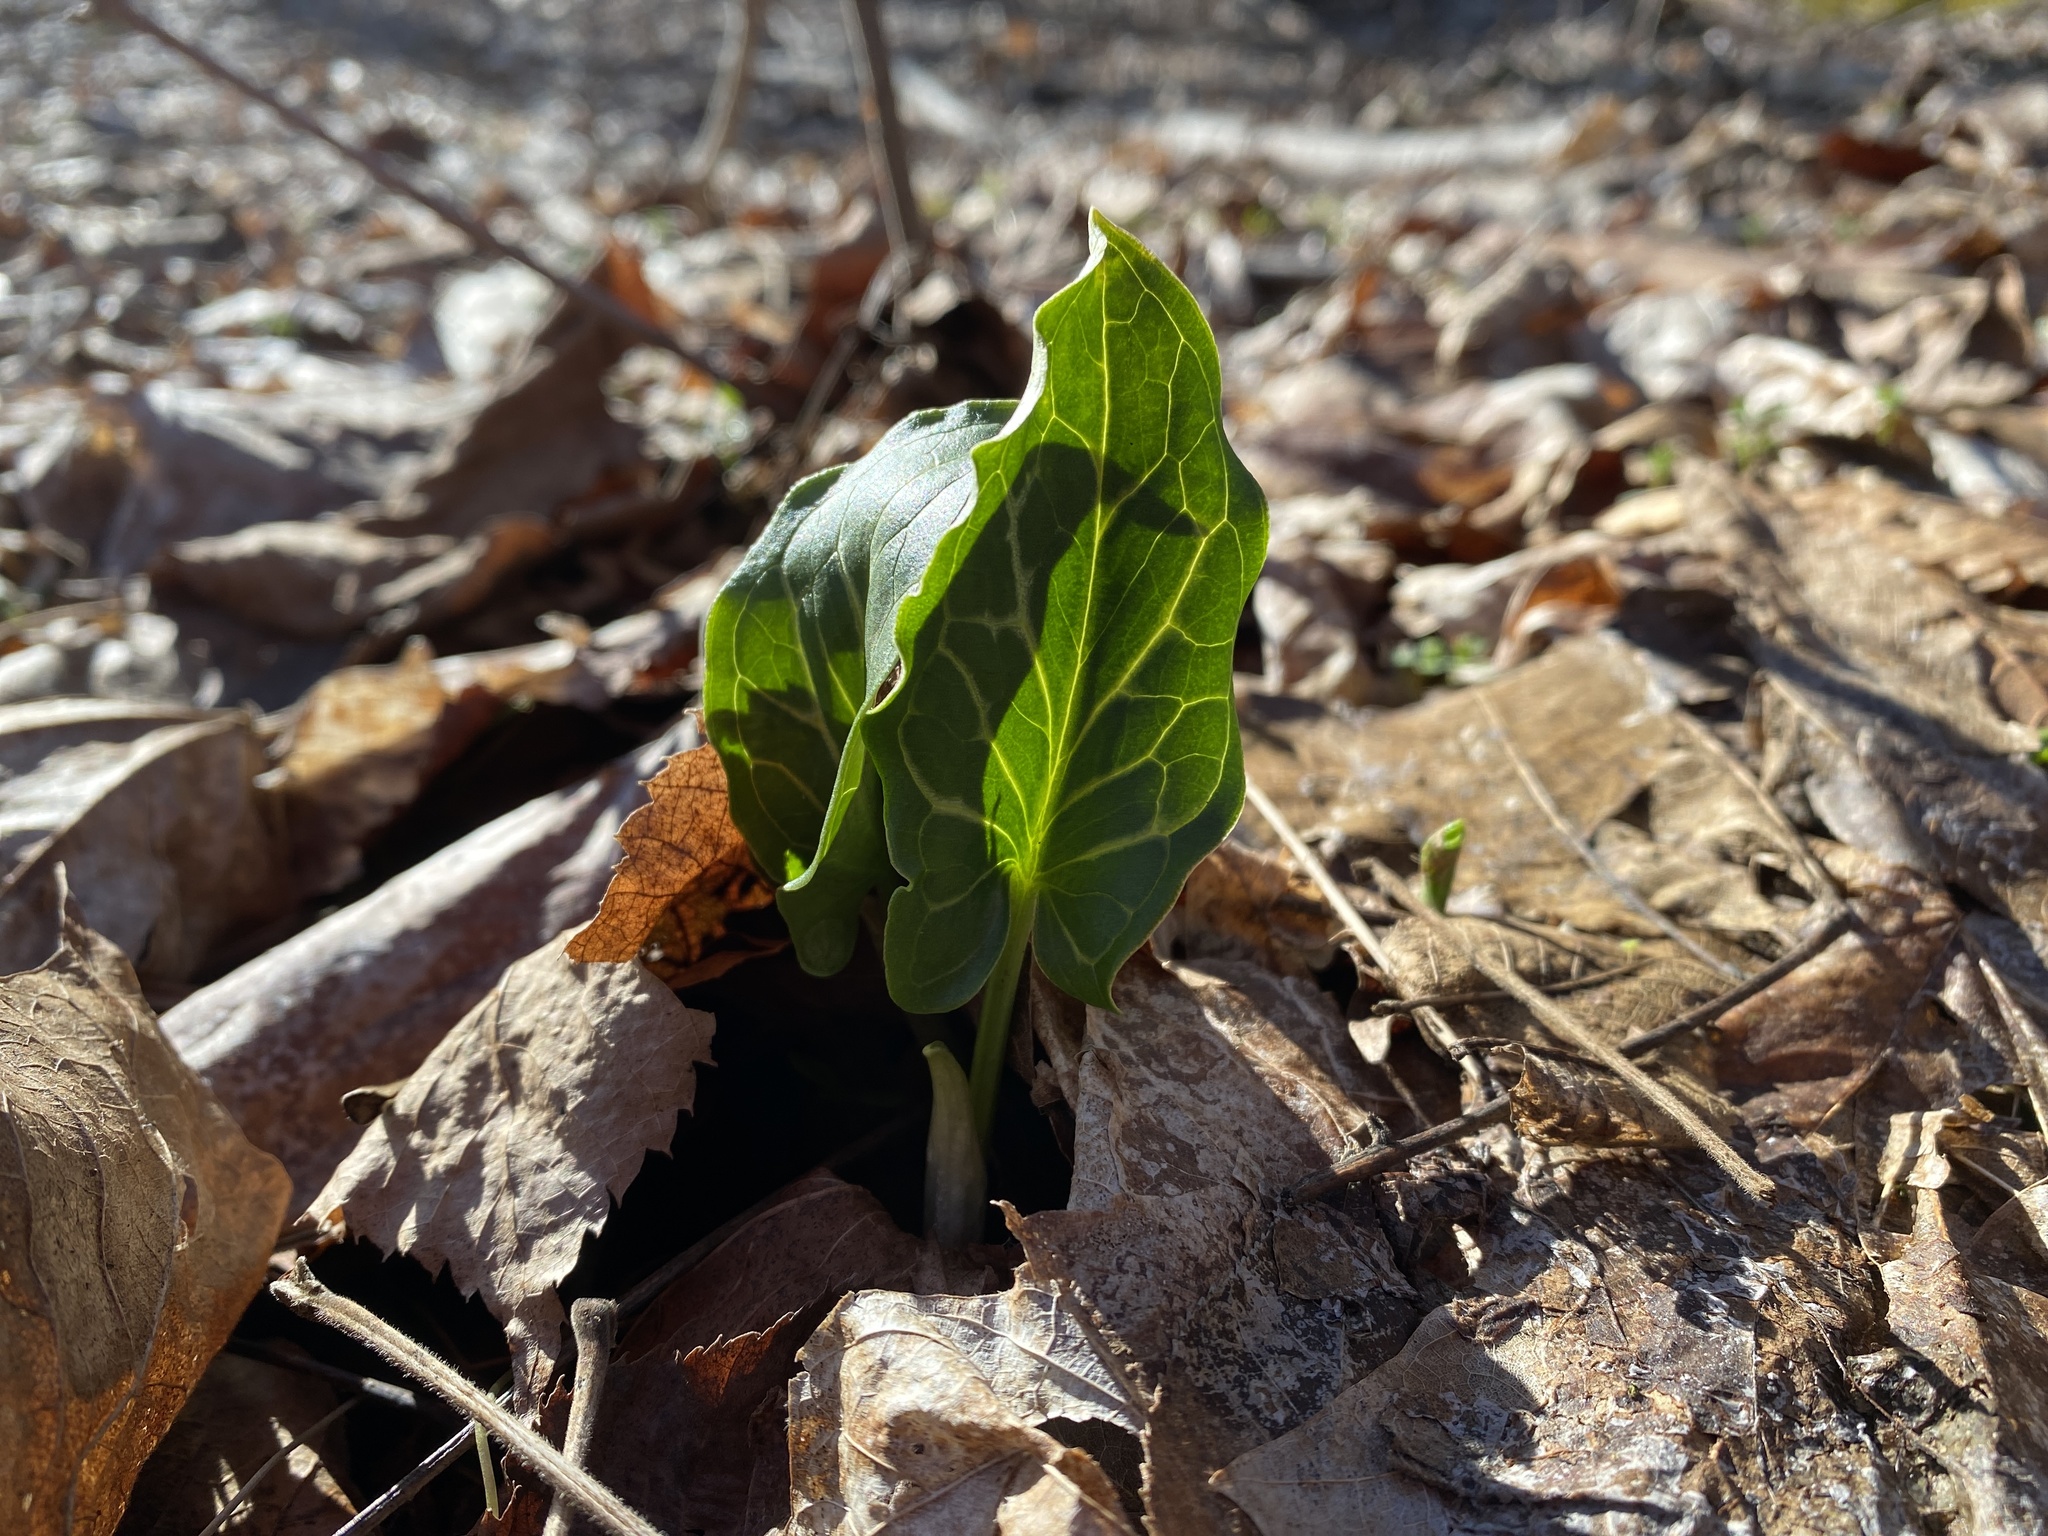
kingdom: Plantae
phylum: Tracheophyta
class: Liliopsida
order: Alismatales
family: Araceae
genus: Arum
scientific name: Arum italicum
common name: Italian lords-and-ladies
